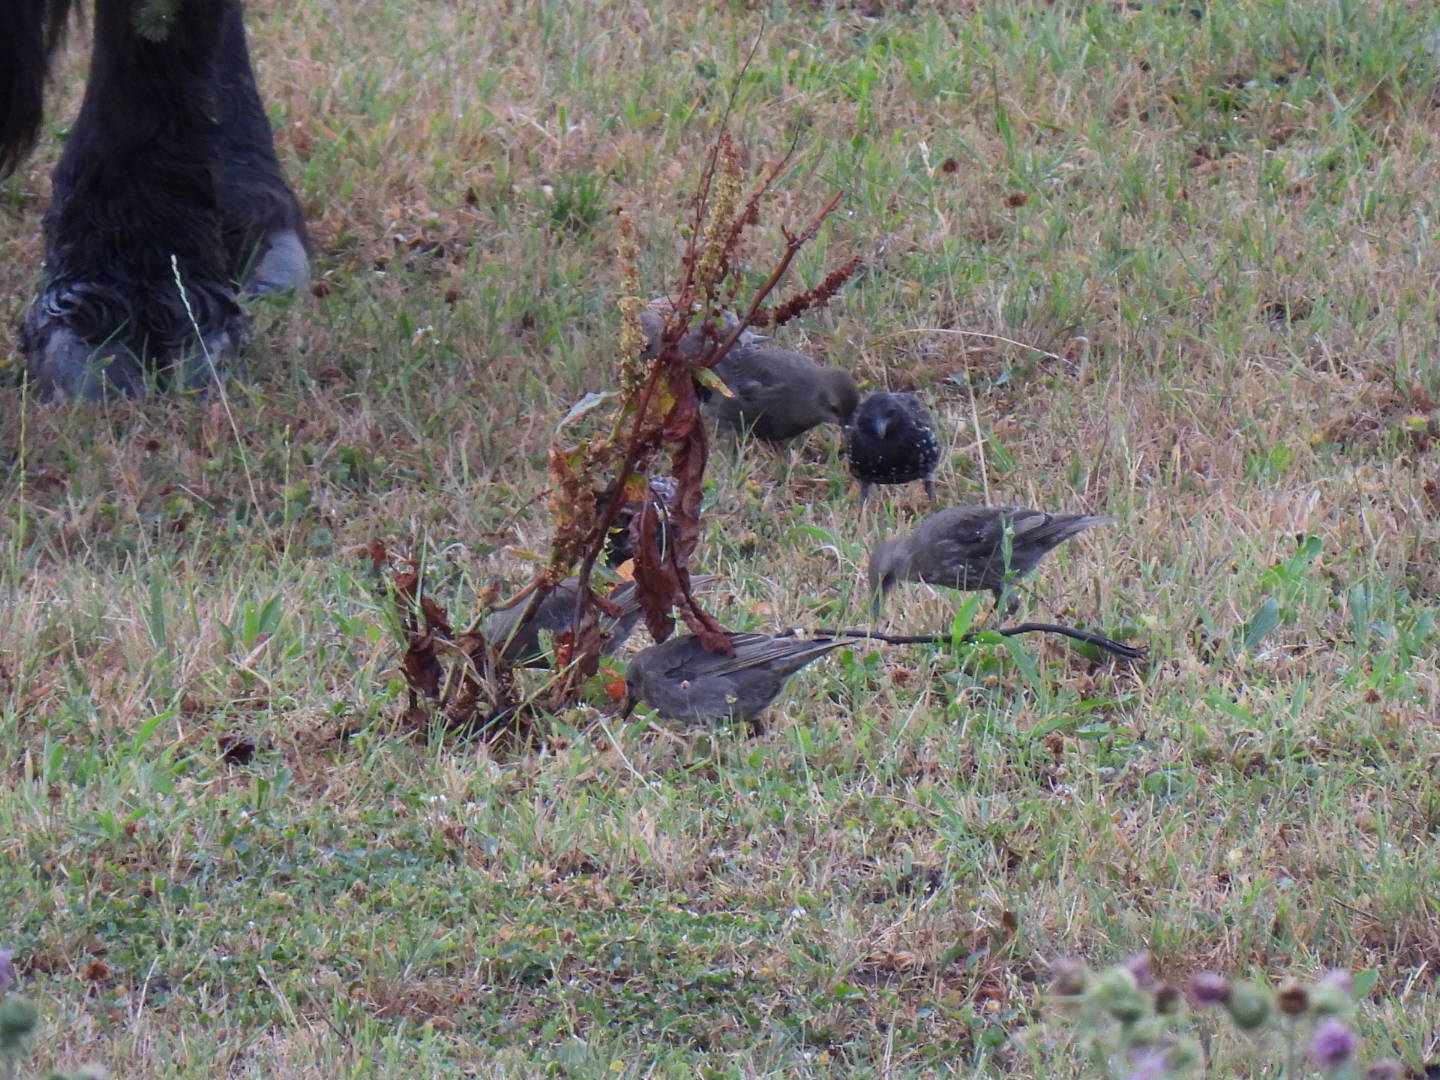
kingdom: Animalia
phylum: Chordata
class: Aves
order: Passeriformes
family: Sturnidae
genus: Sturnus
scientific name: Sturnus vulgaris
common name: Common starling
